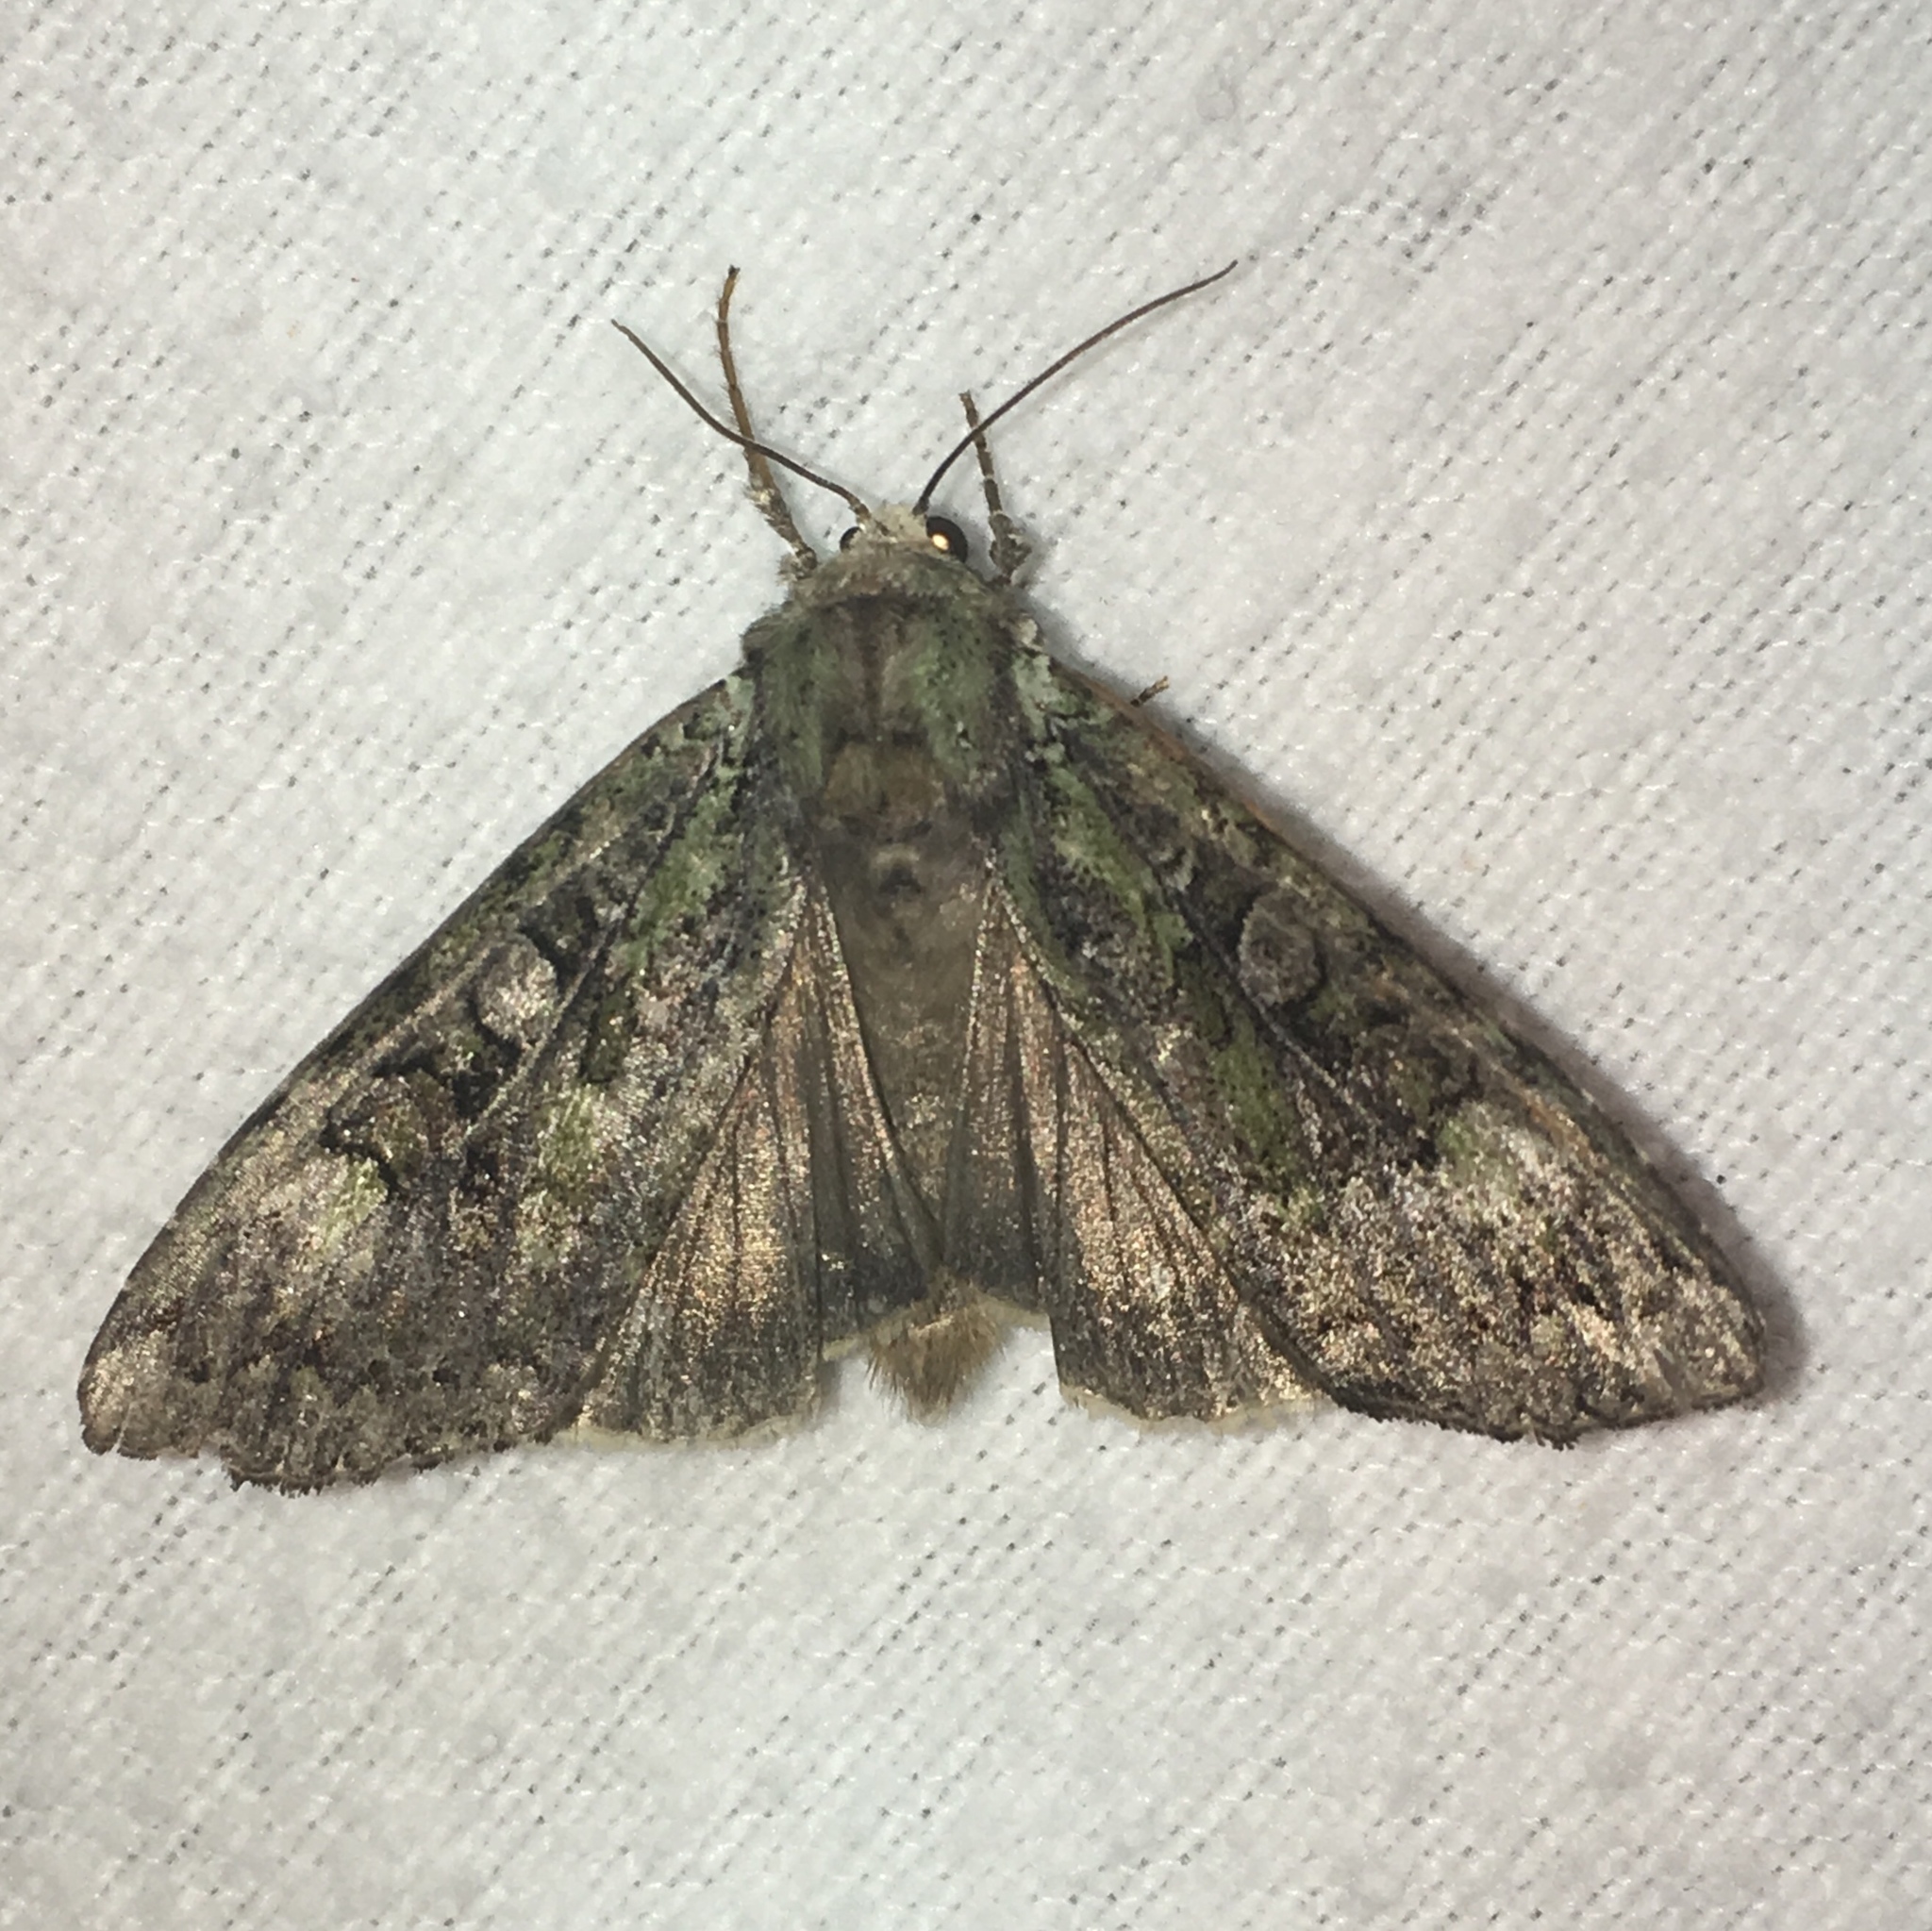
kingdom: Animalia
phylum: Arthropoda
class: Insecta
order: Lepidoptera
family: Noctuidae
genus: Anaplectoides
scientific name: Anaplectoides pressus
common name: Dappled dart
